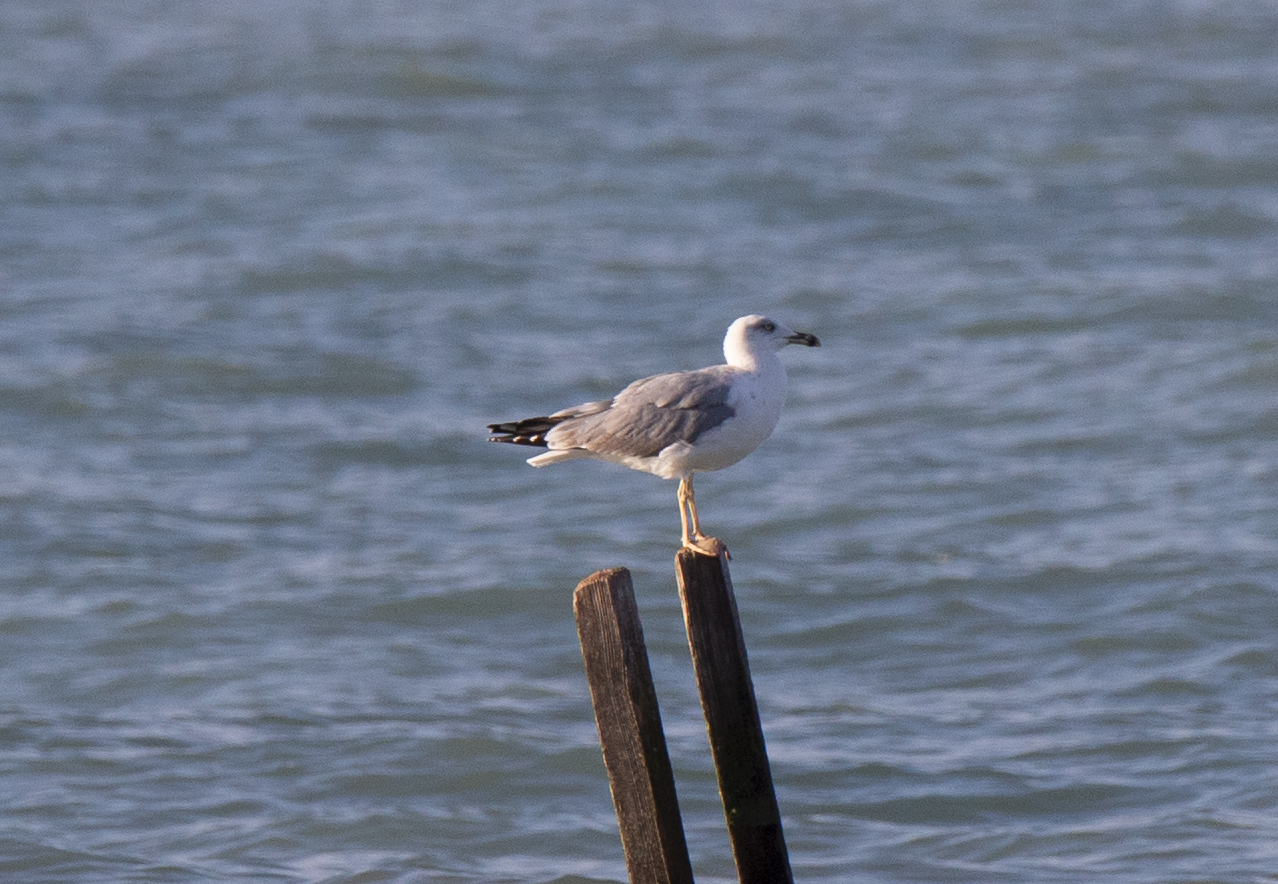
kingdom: Animalia
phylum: Chordata
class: Aves
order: Charadriiformes
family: Laridae
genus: Larus
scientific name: Larus michahellis
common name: Yellow-legged gull
